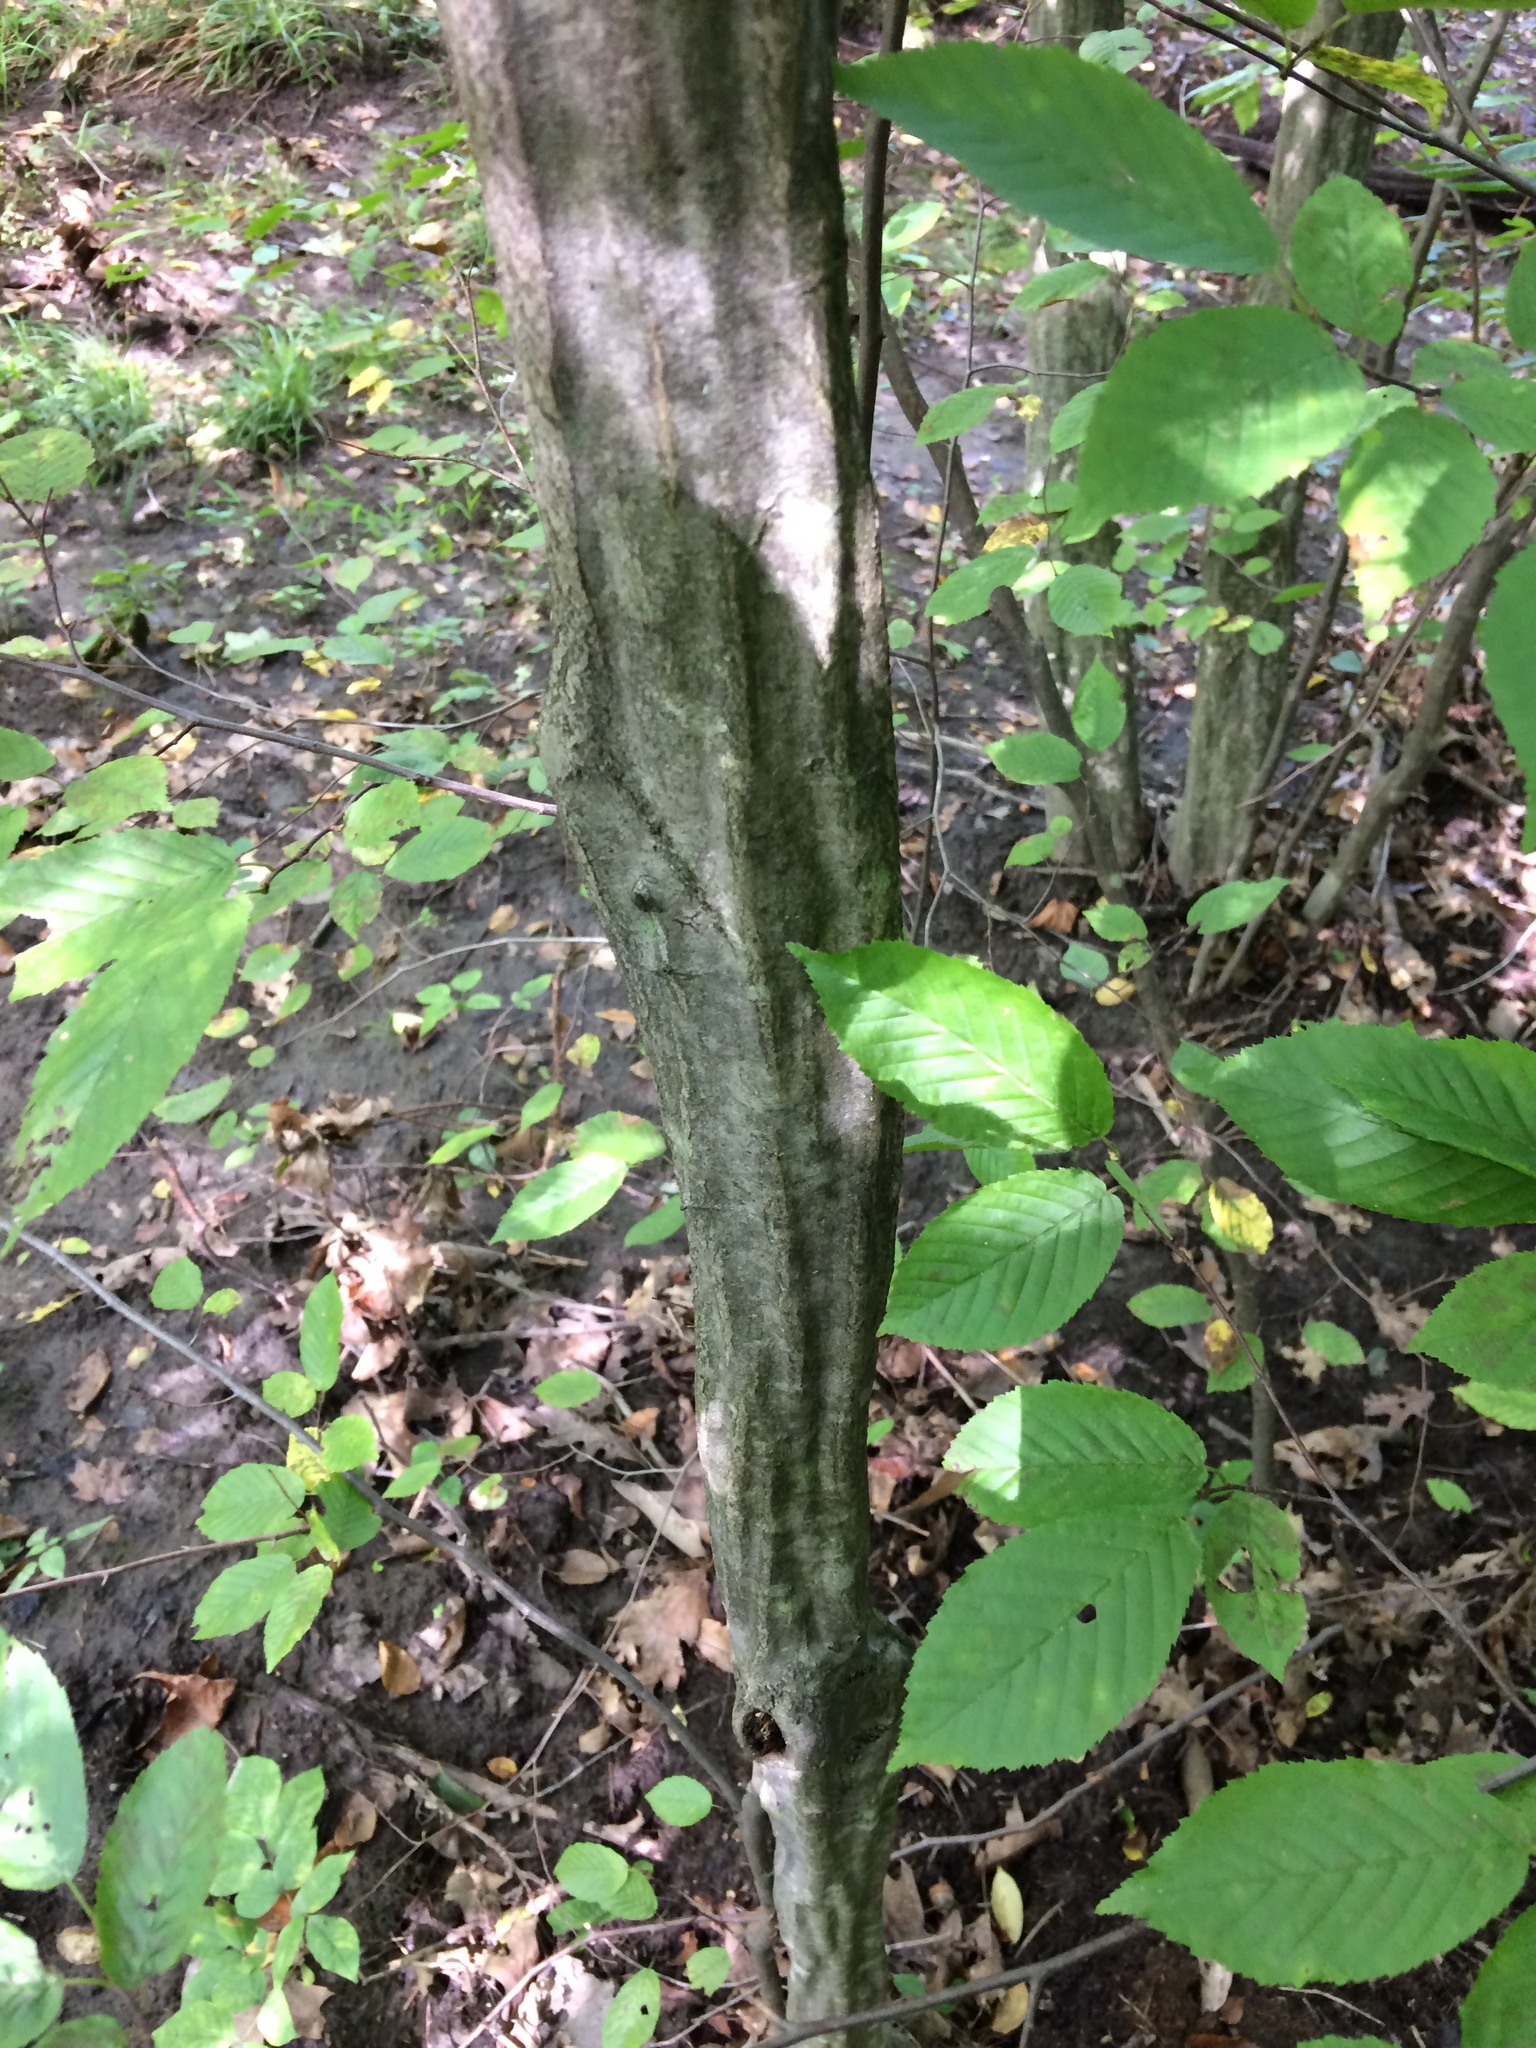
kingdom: Plantae
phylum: Tracheophyta
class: Magnoliopsida
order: Fagales
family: Betulaceae
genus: Carpinus
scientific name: Carpinus caroliniana
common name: American hornbeam
